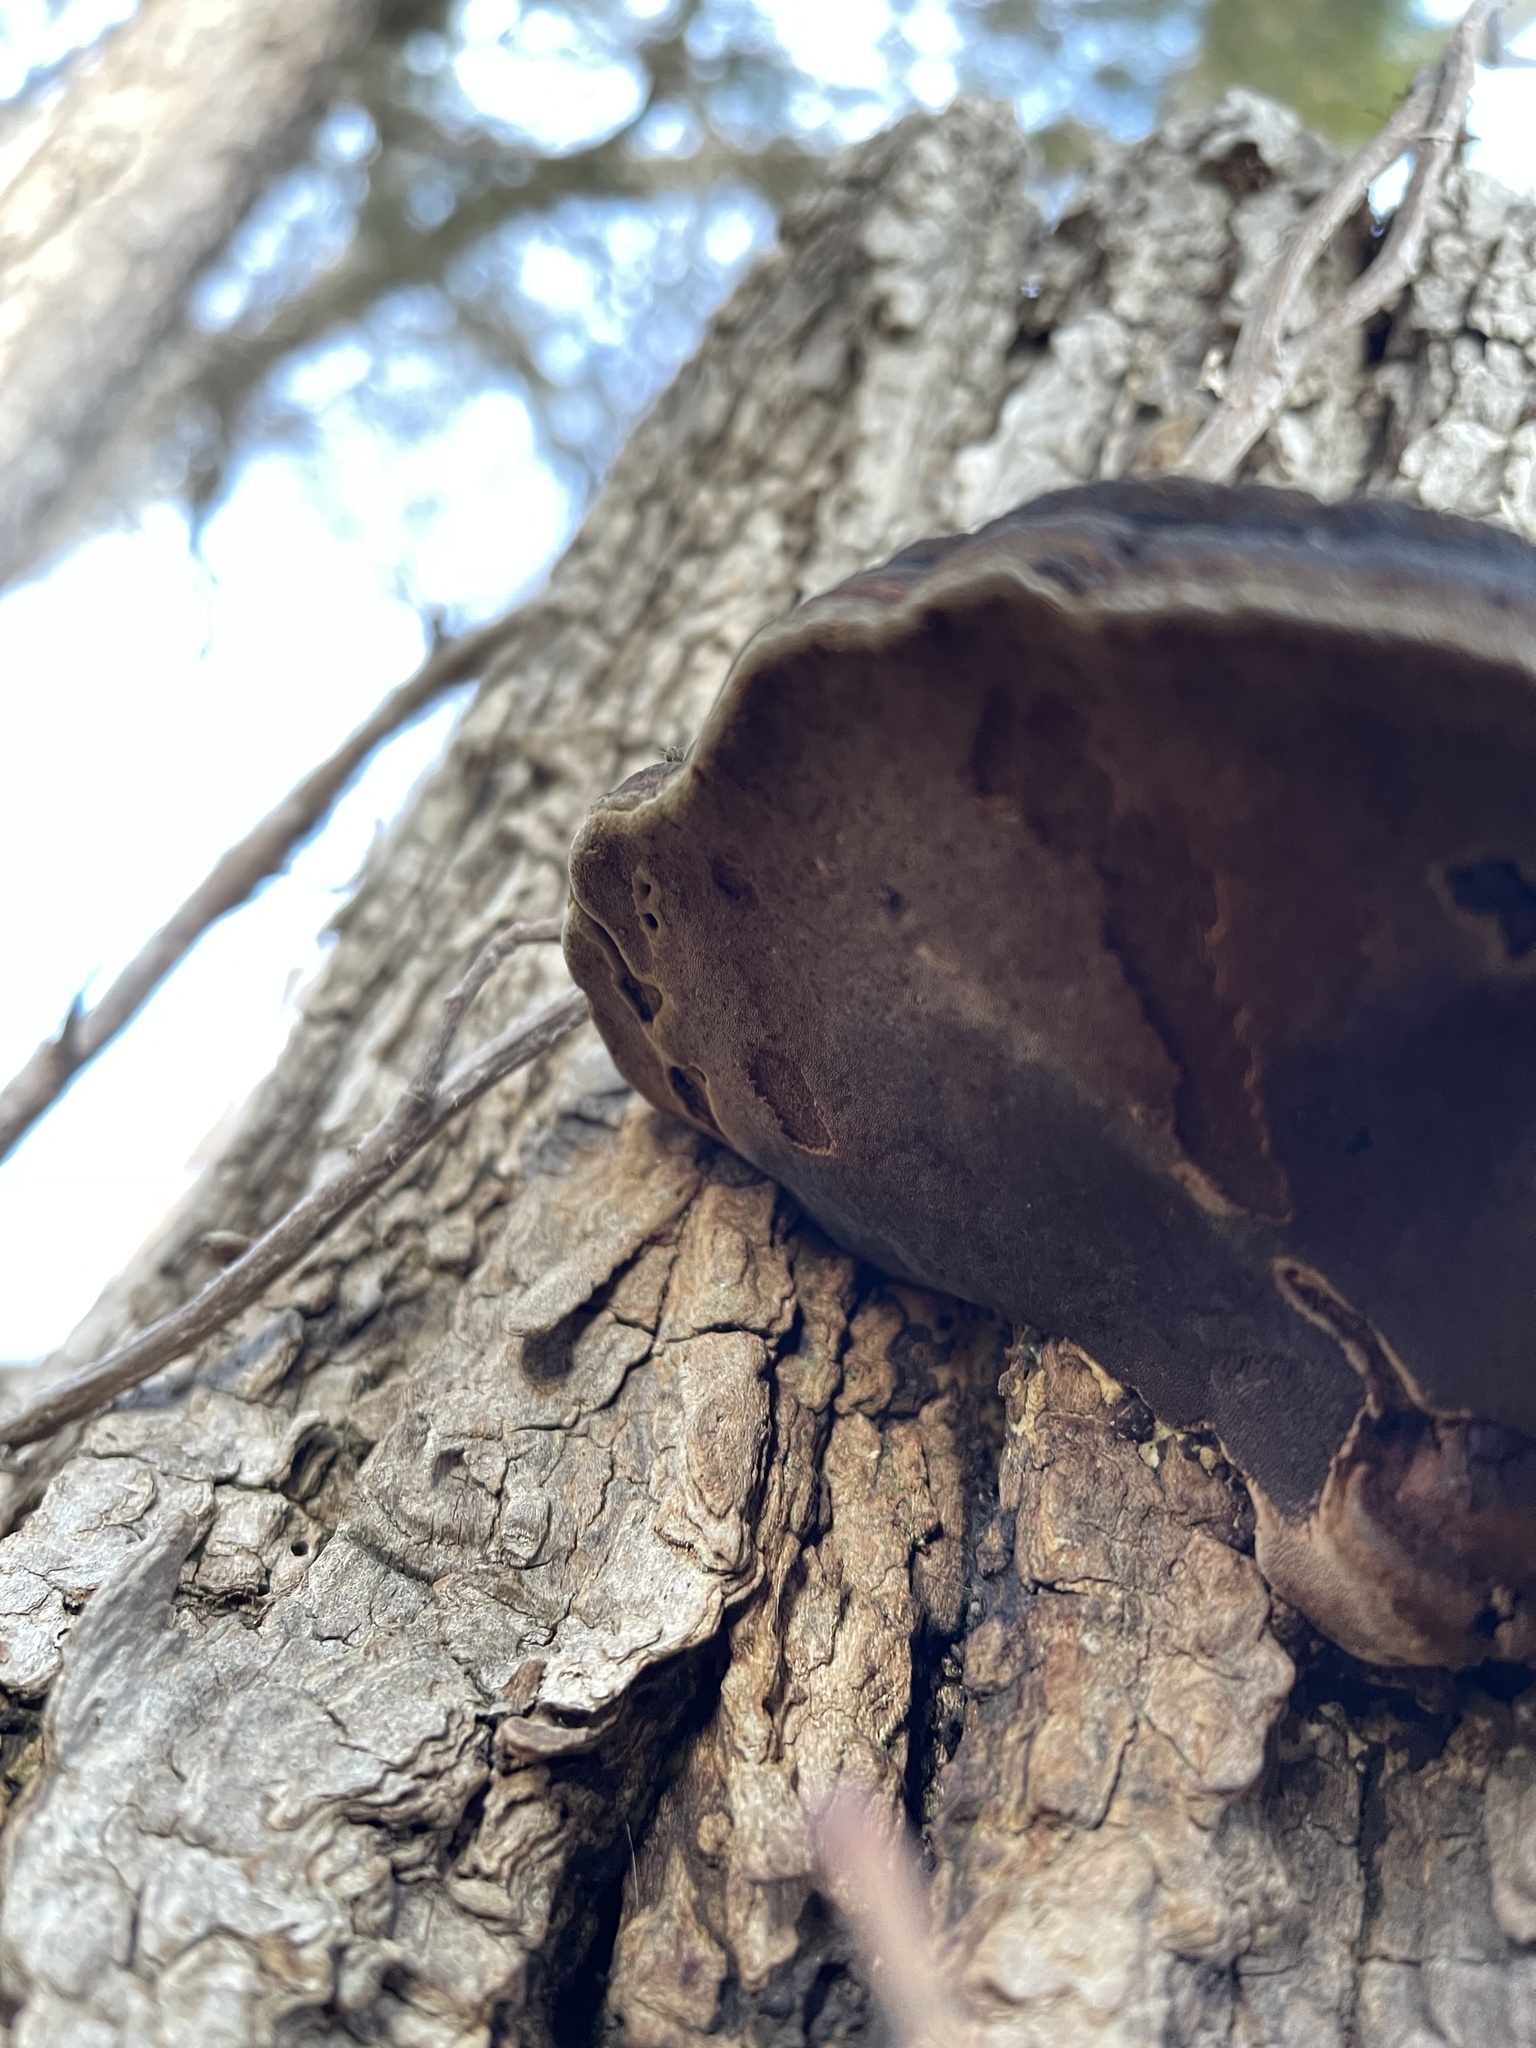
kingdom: Fungi
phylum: Basidiomycota
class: Agaricomycetes
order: Hymenochaetales
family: Hymenochaetaceae
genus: Phellinus
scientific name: Phellinus robiniae
